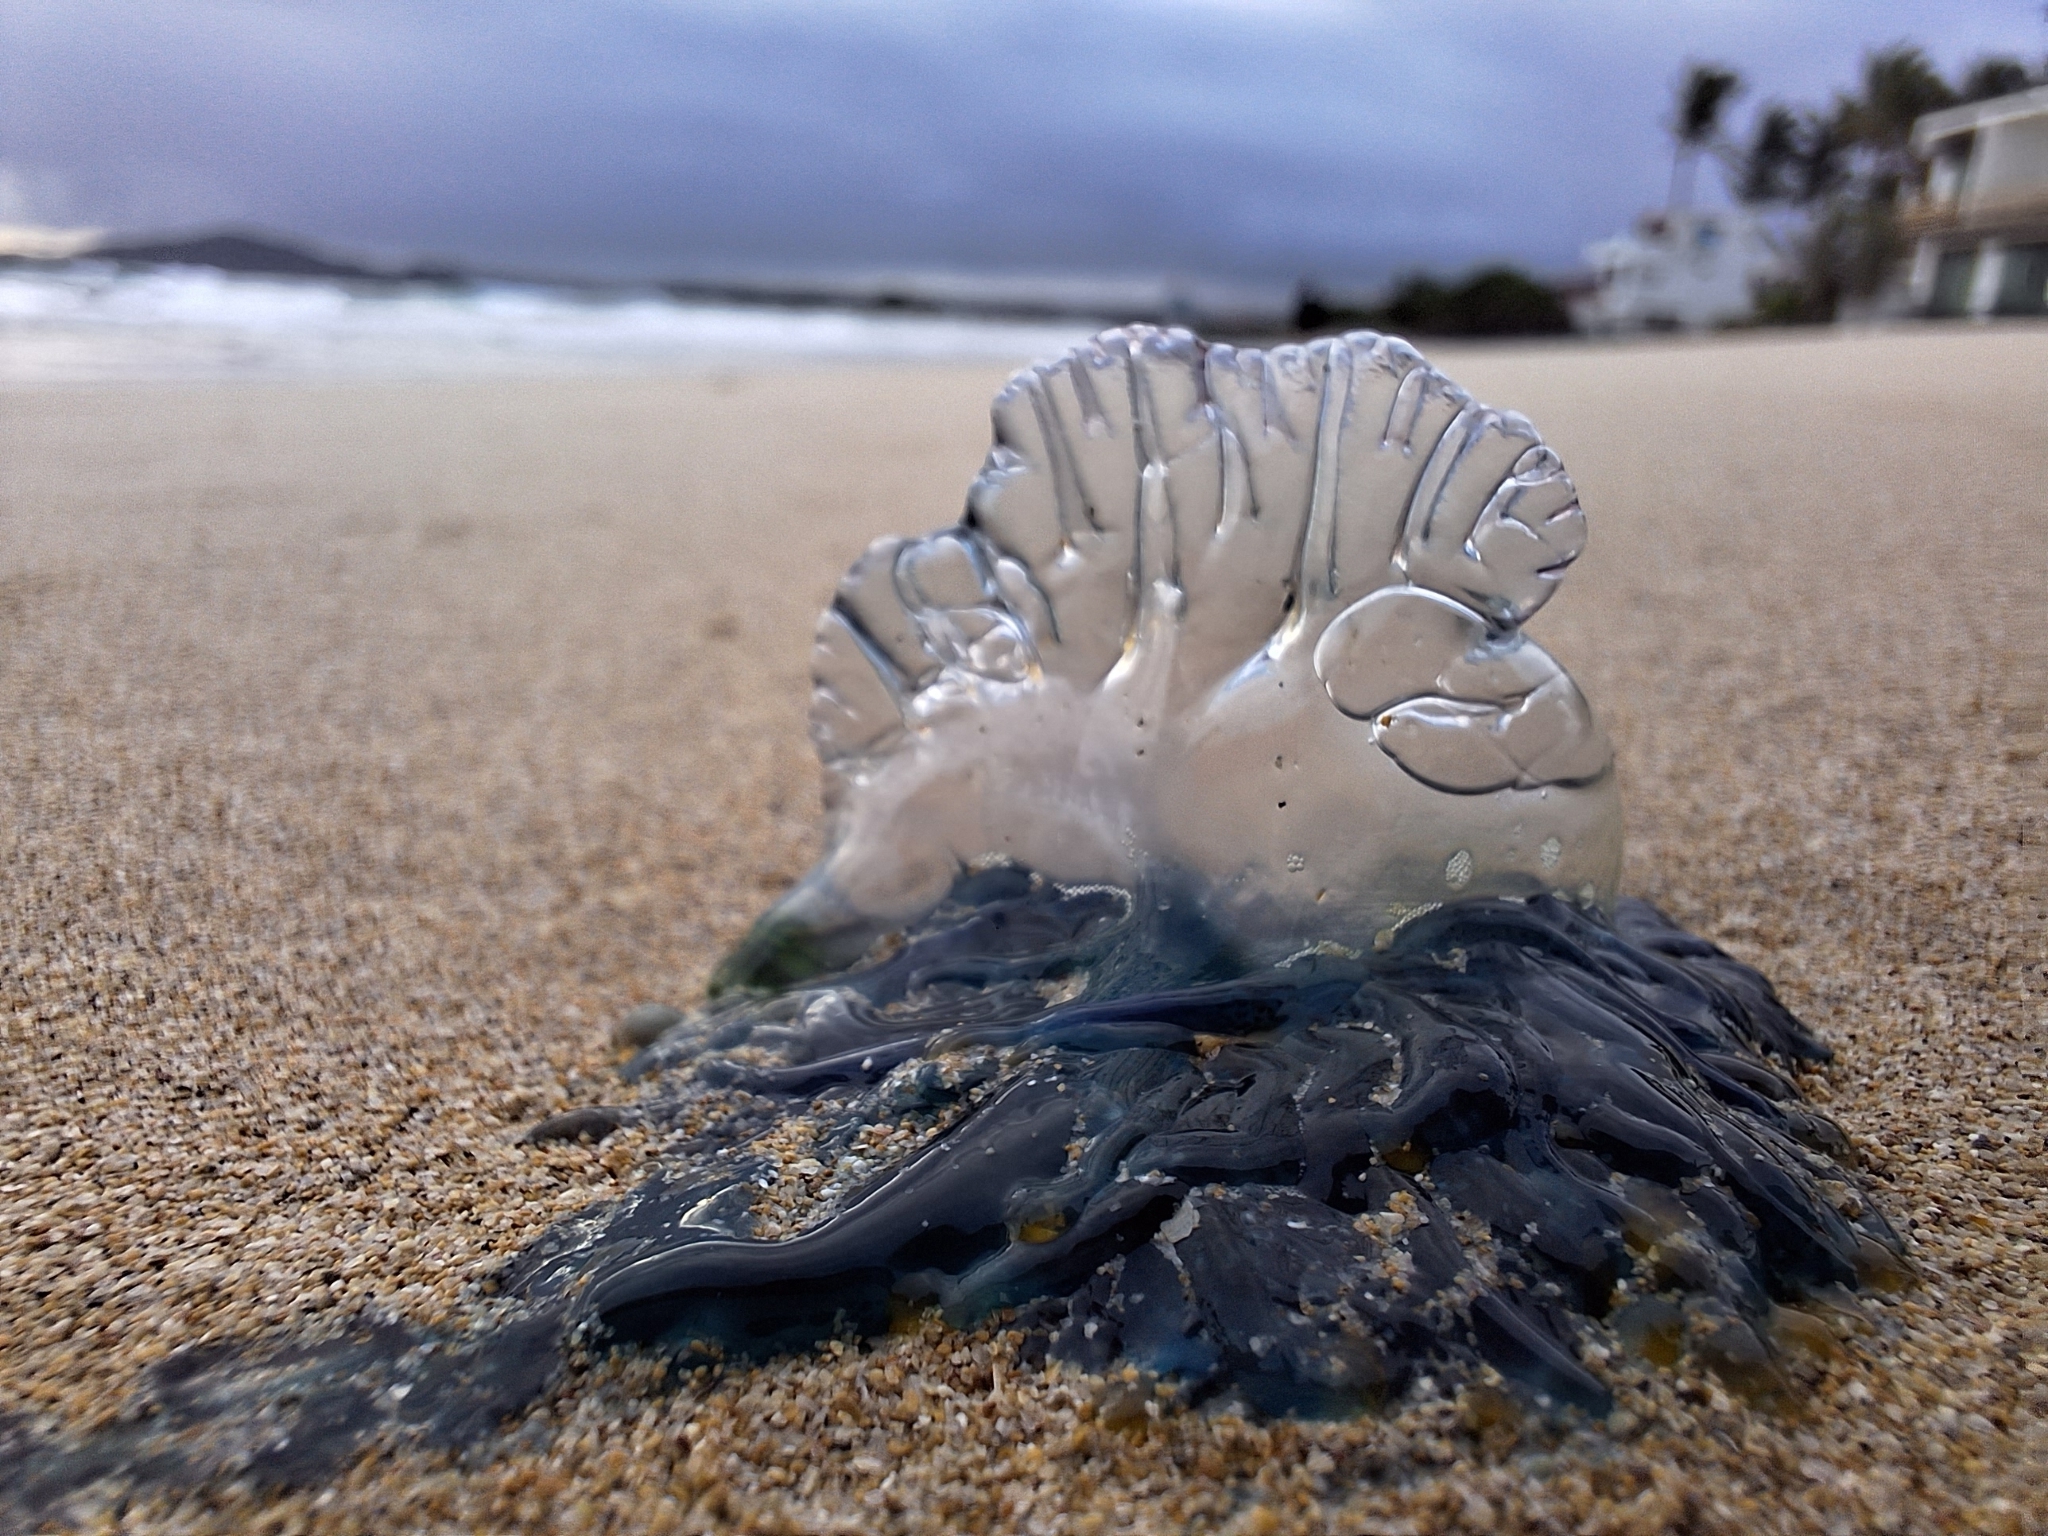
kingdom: Animalia
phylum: Cnidaria
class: Hydrozoa
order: Siphonophorae
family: Physaliidae
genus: Physalia
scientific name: Physalia physalis
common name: Portuguese man-of-war
